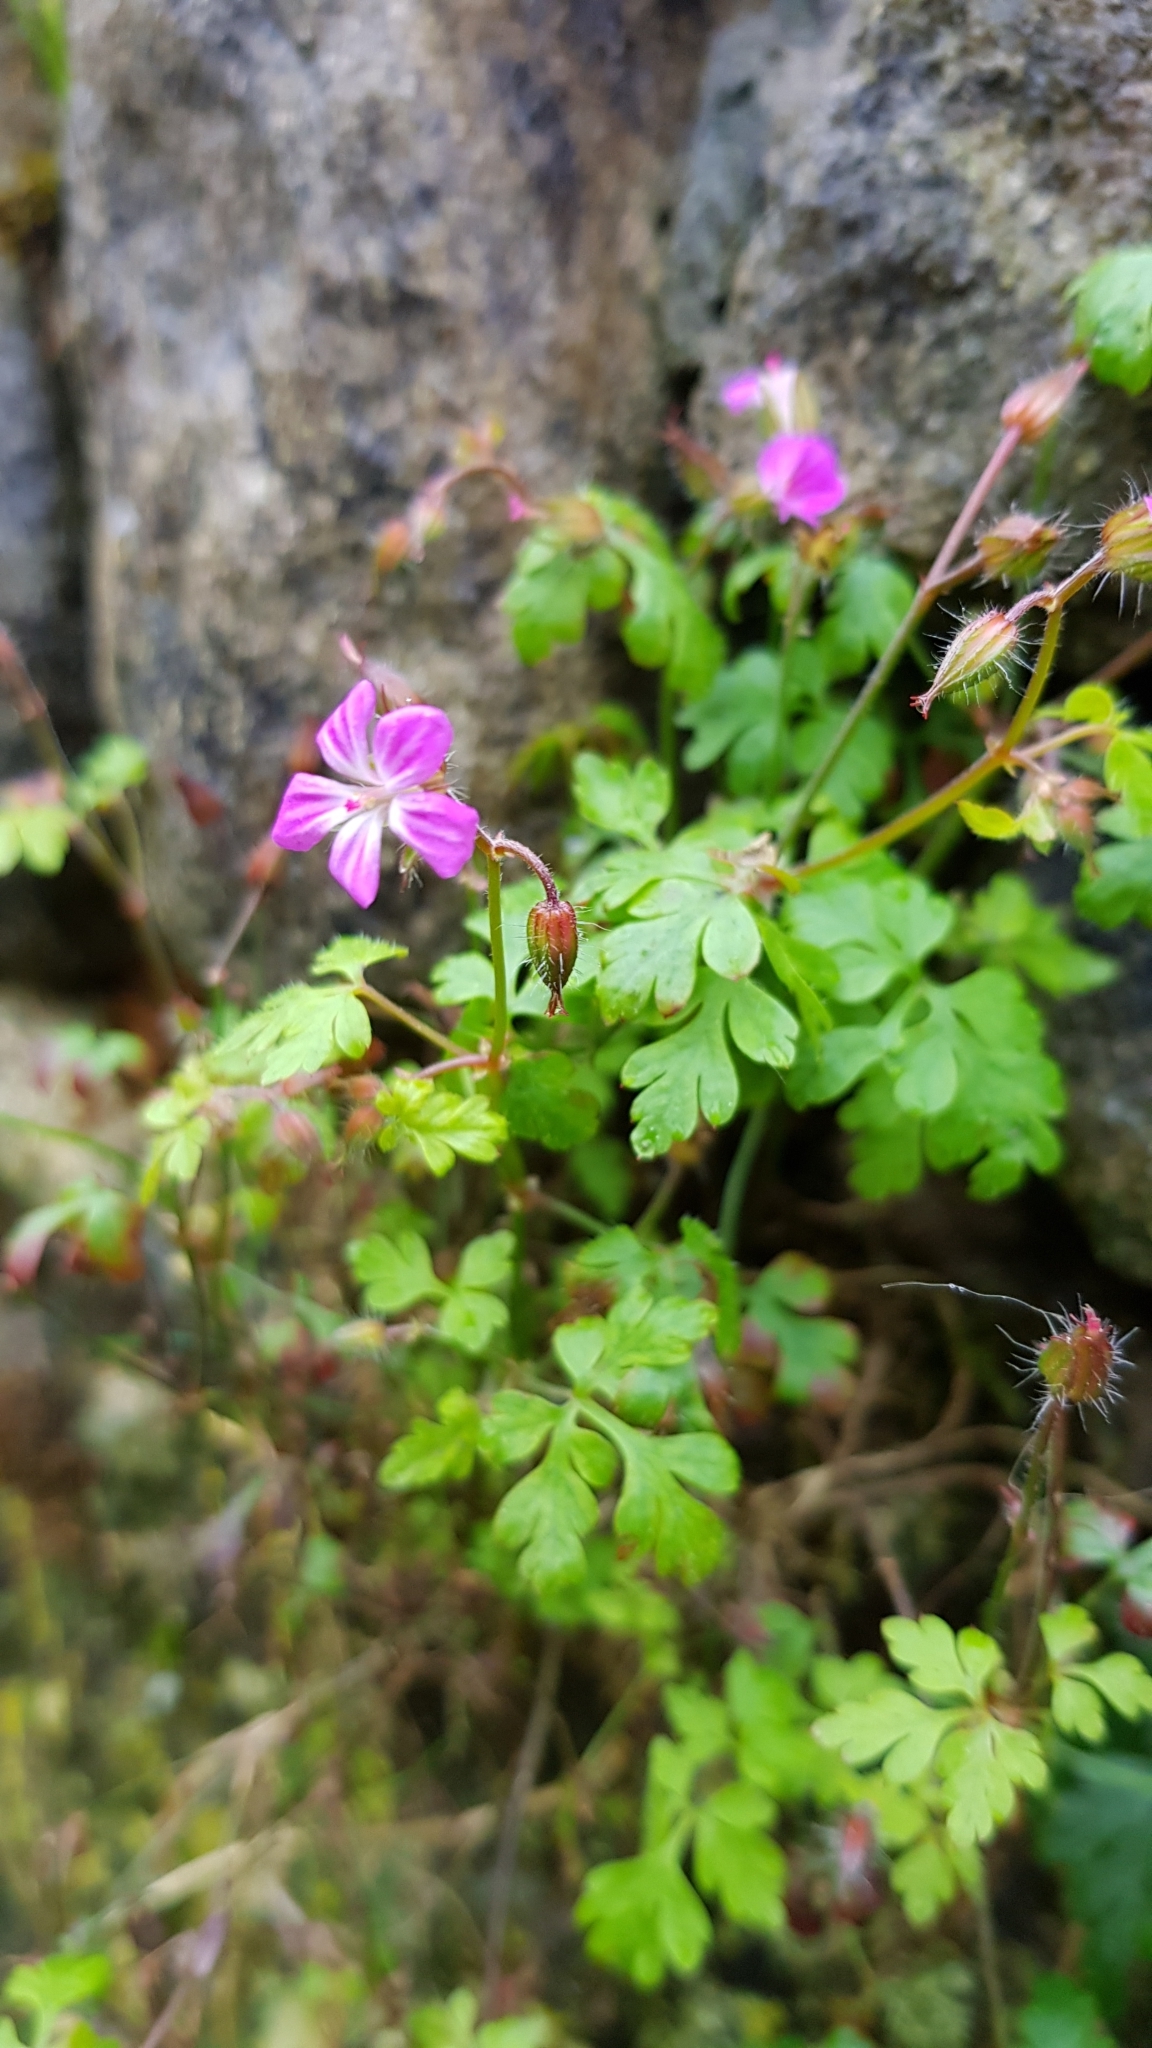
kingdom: Plantae
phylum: Tracheophyta
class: Magnoliopsida
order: Geraniales
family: Geraniaceae
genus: Geranium
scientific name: Geranium robertianum
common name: Herb-robert
